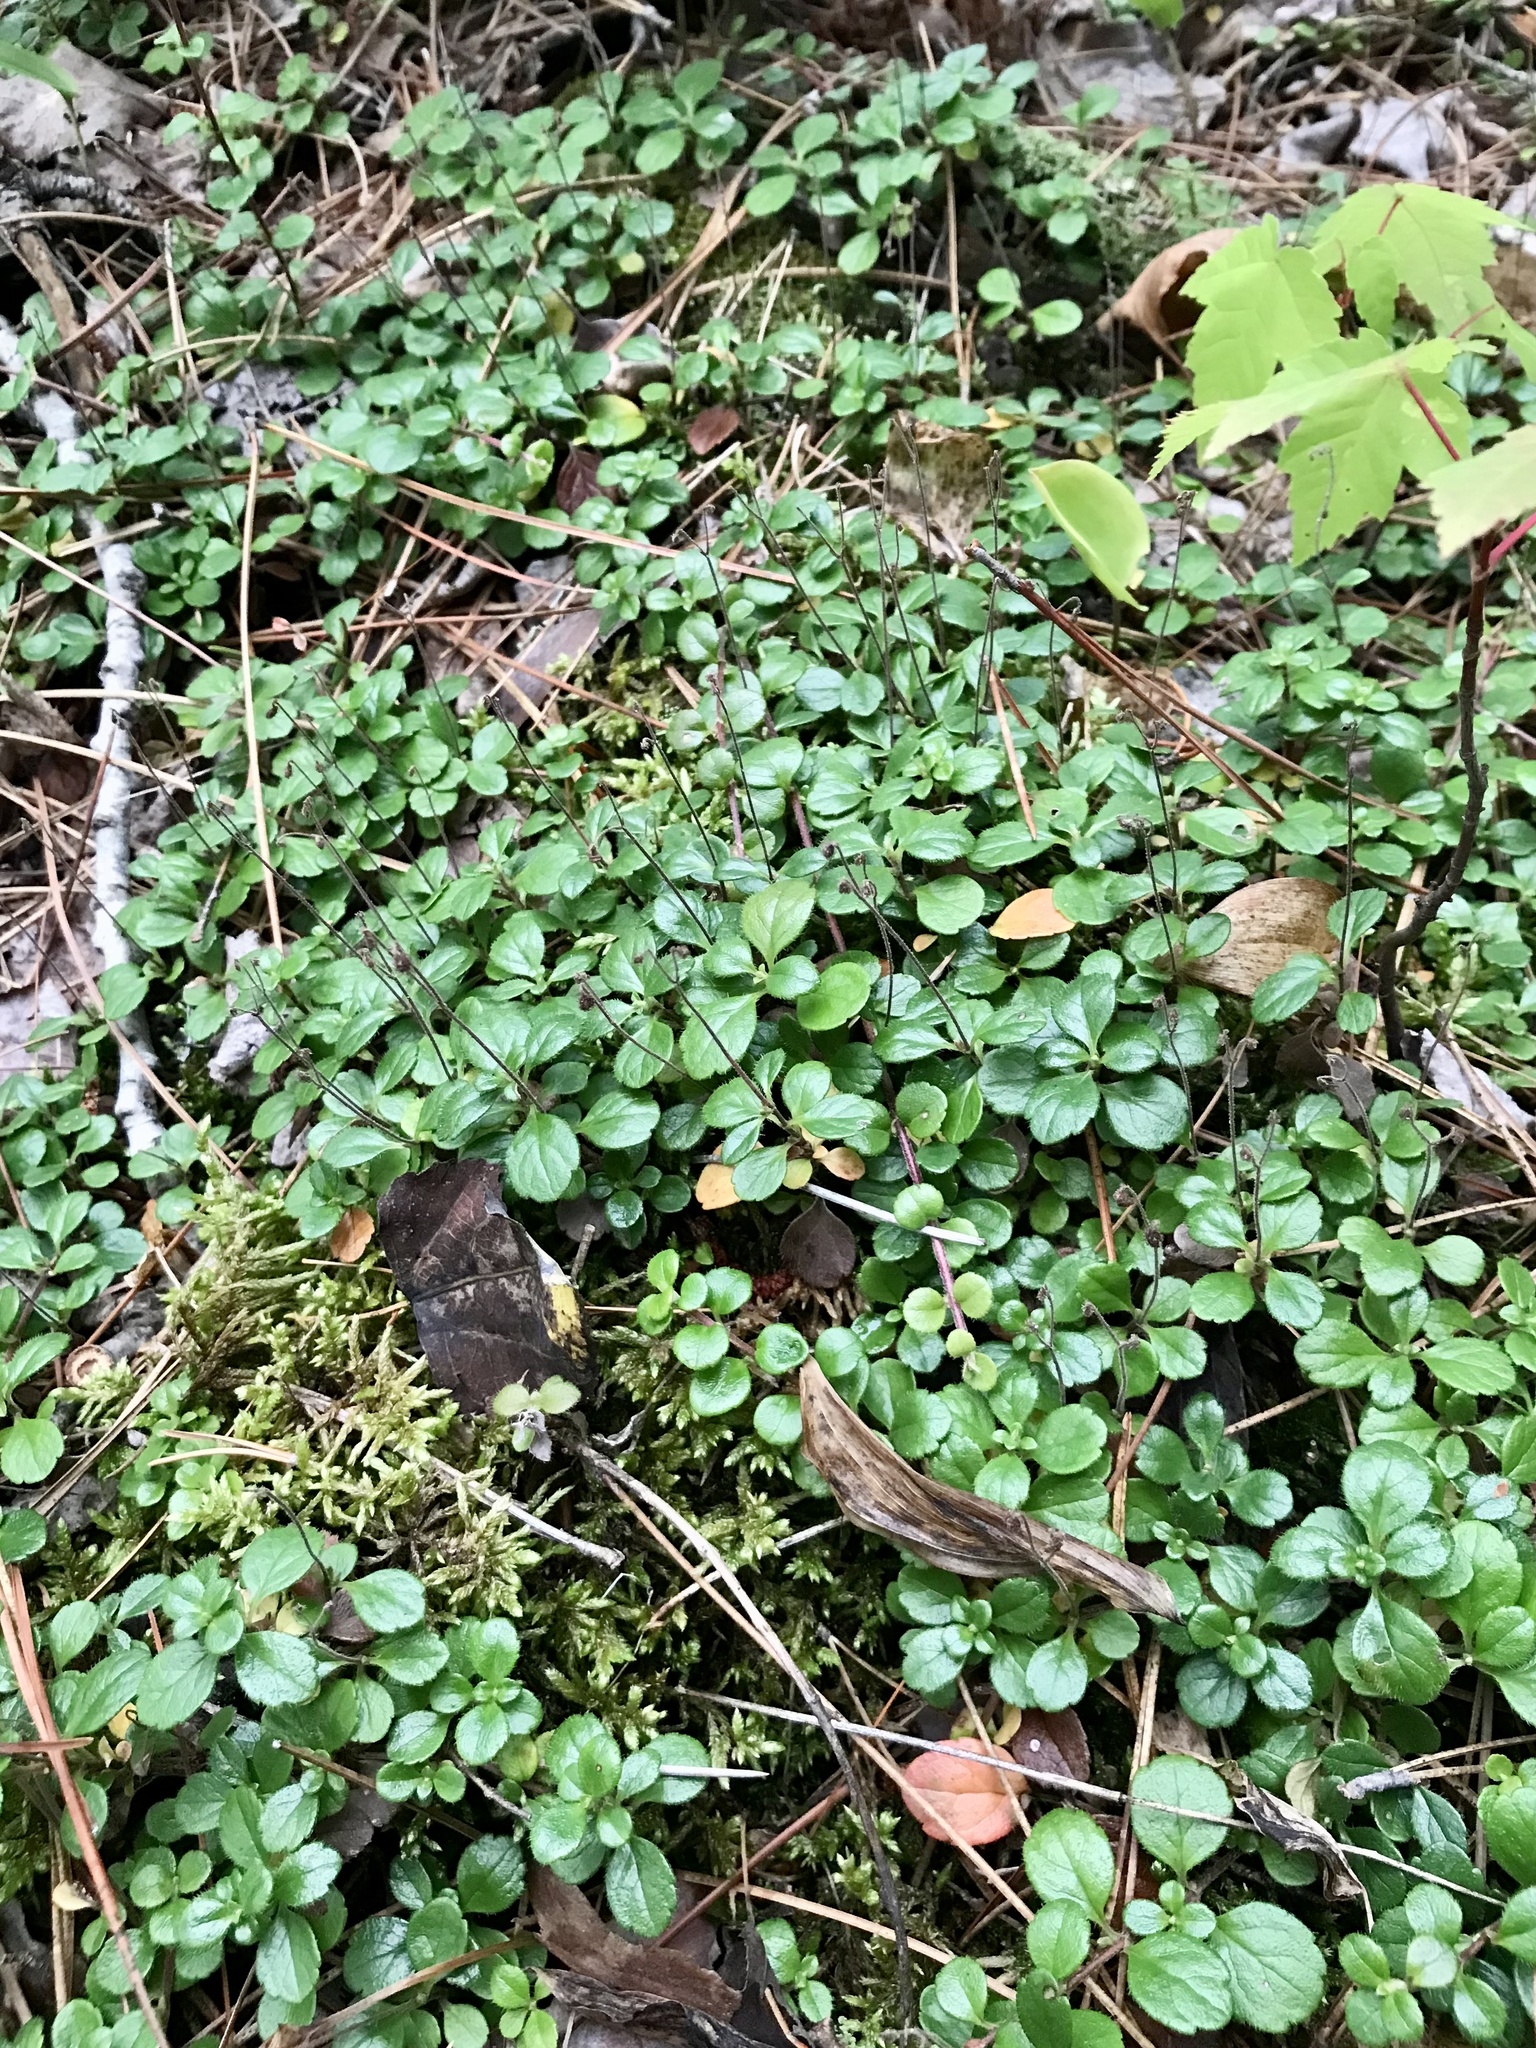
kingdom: Plantae
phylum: Tracheophyta
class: Magnoliopsida
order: Dipsacales
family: Caprifoliaceae
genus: Linnaea
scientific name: Linnaea borealis
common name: Twinflower
